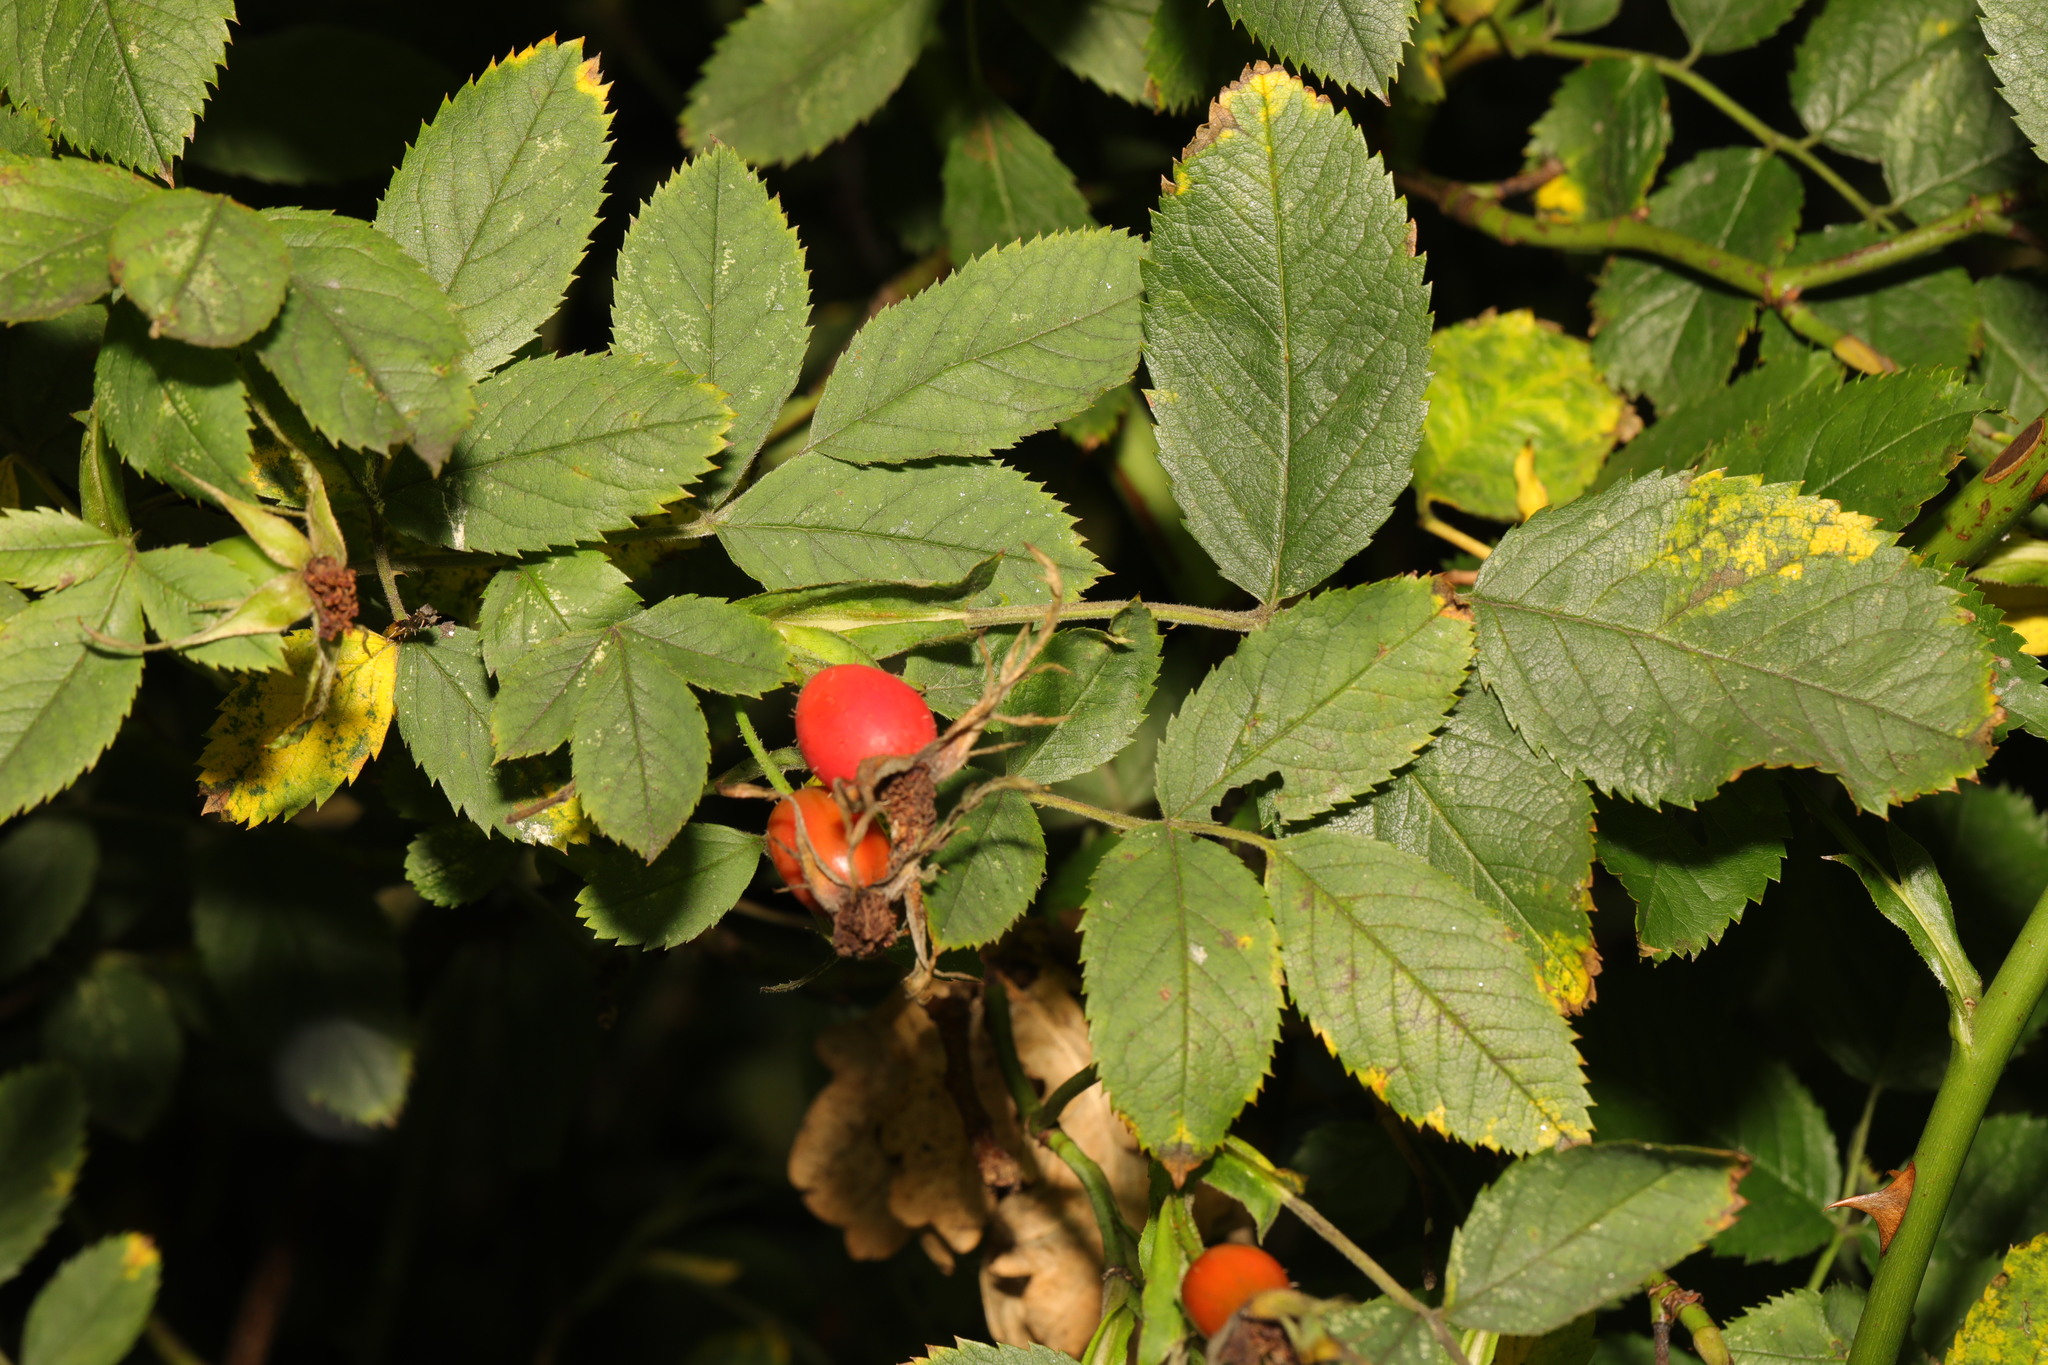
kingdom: Plantae
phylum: Tracheophyta
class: Magnoliopsida
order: Rosales
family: Rosaceae
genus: Rosa
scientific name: Rosa corymbifera
